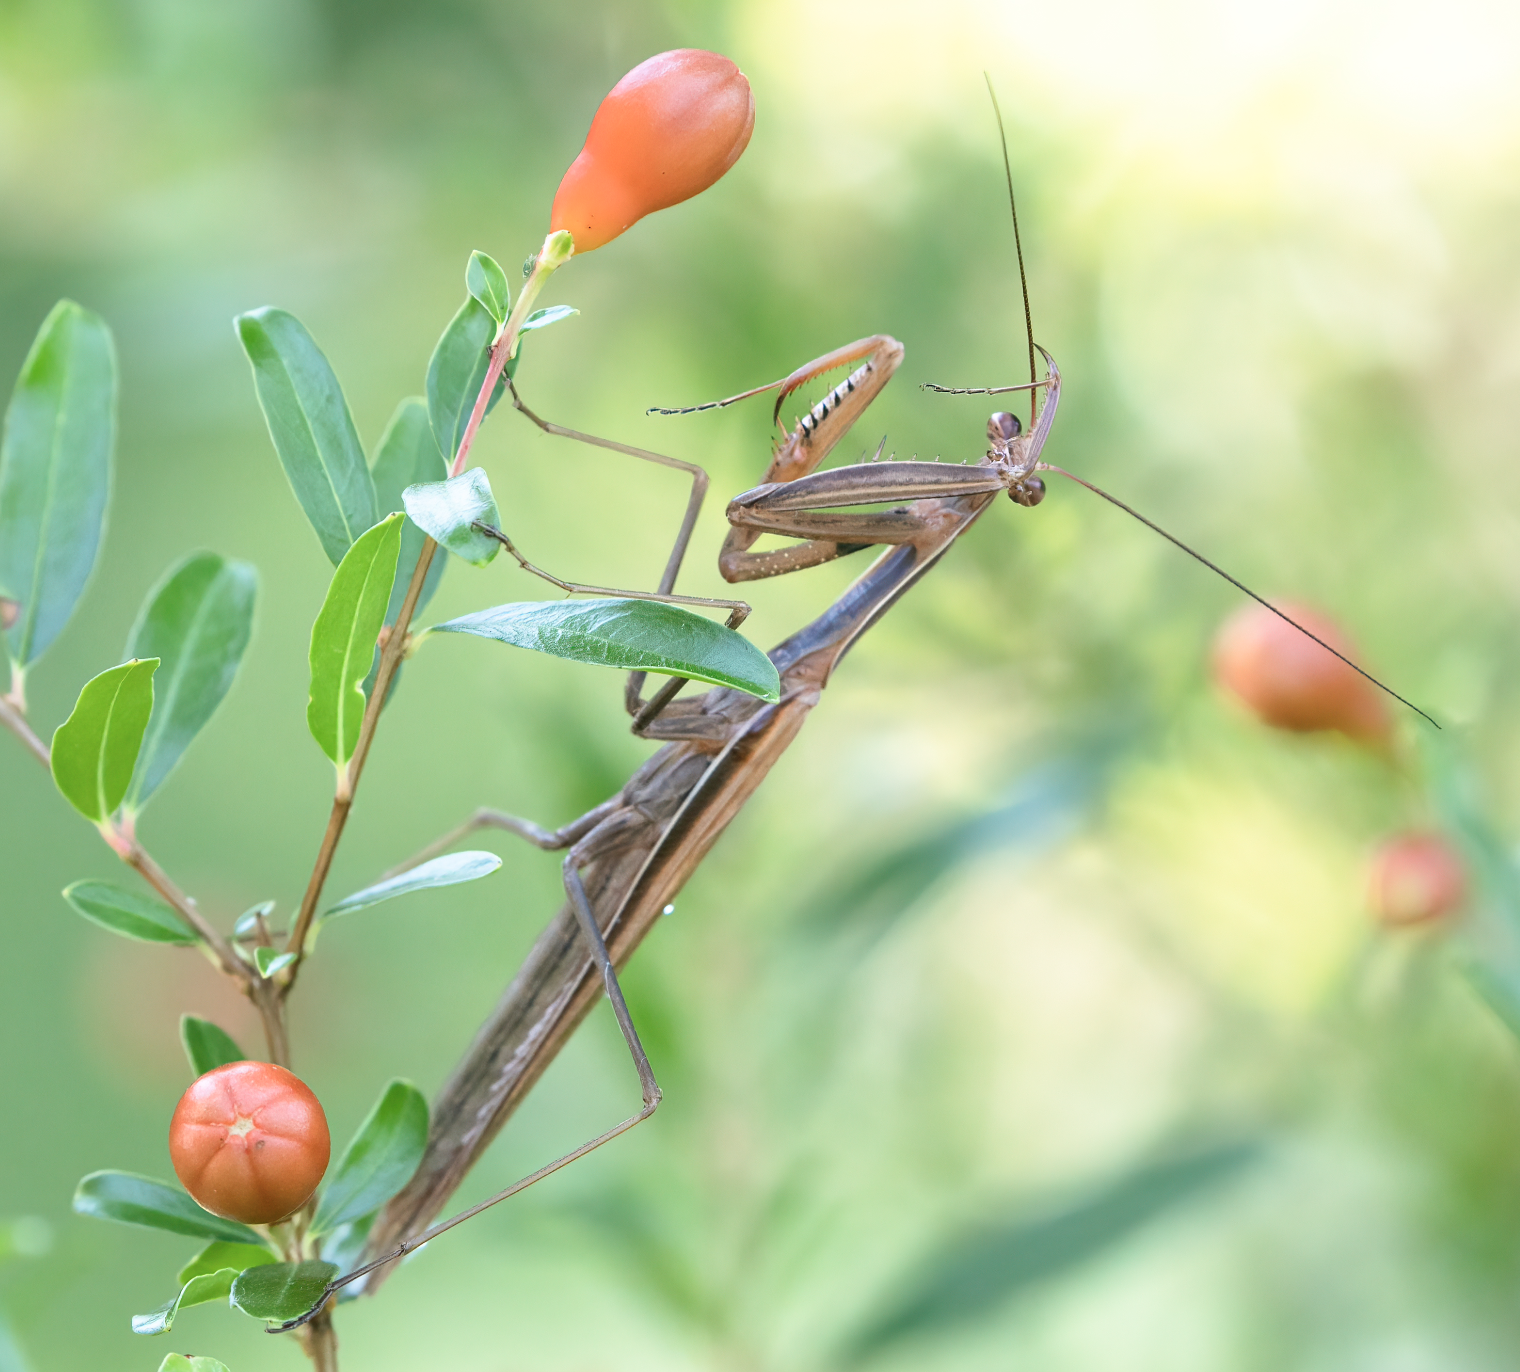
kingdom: Animalia
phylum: Arthropoda
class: Insecta
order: Mantodea
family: Mantidae
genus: Mantis
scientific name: Mantis religiosa
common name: Praying mantis
